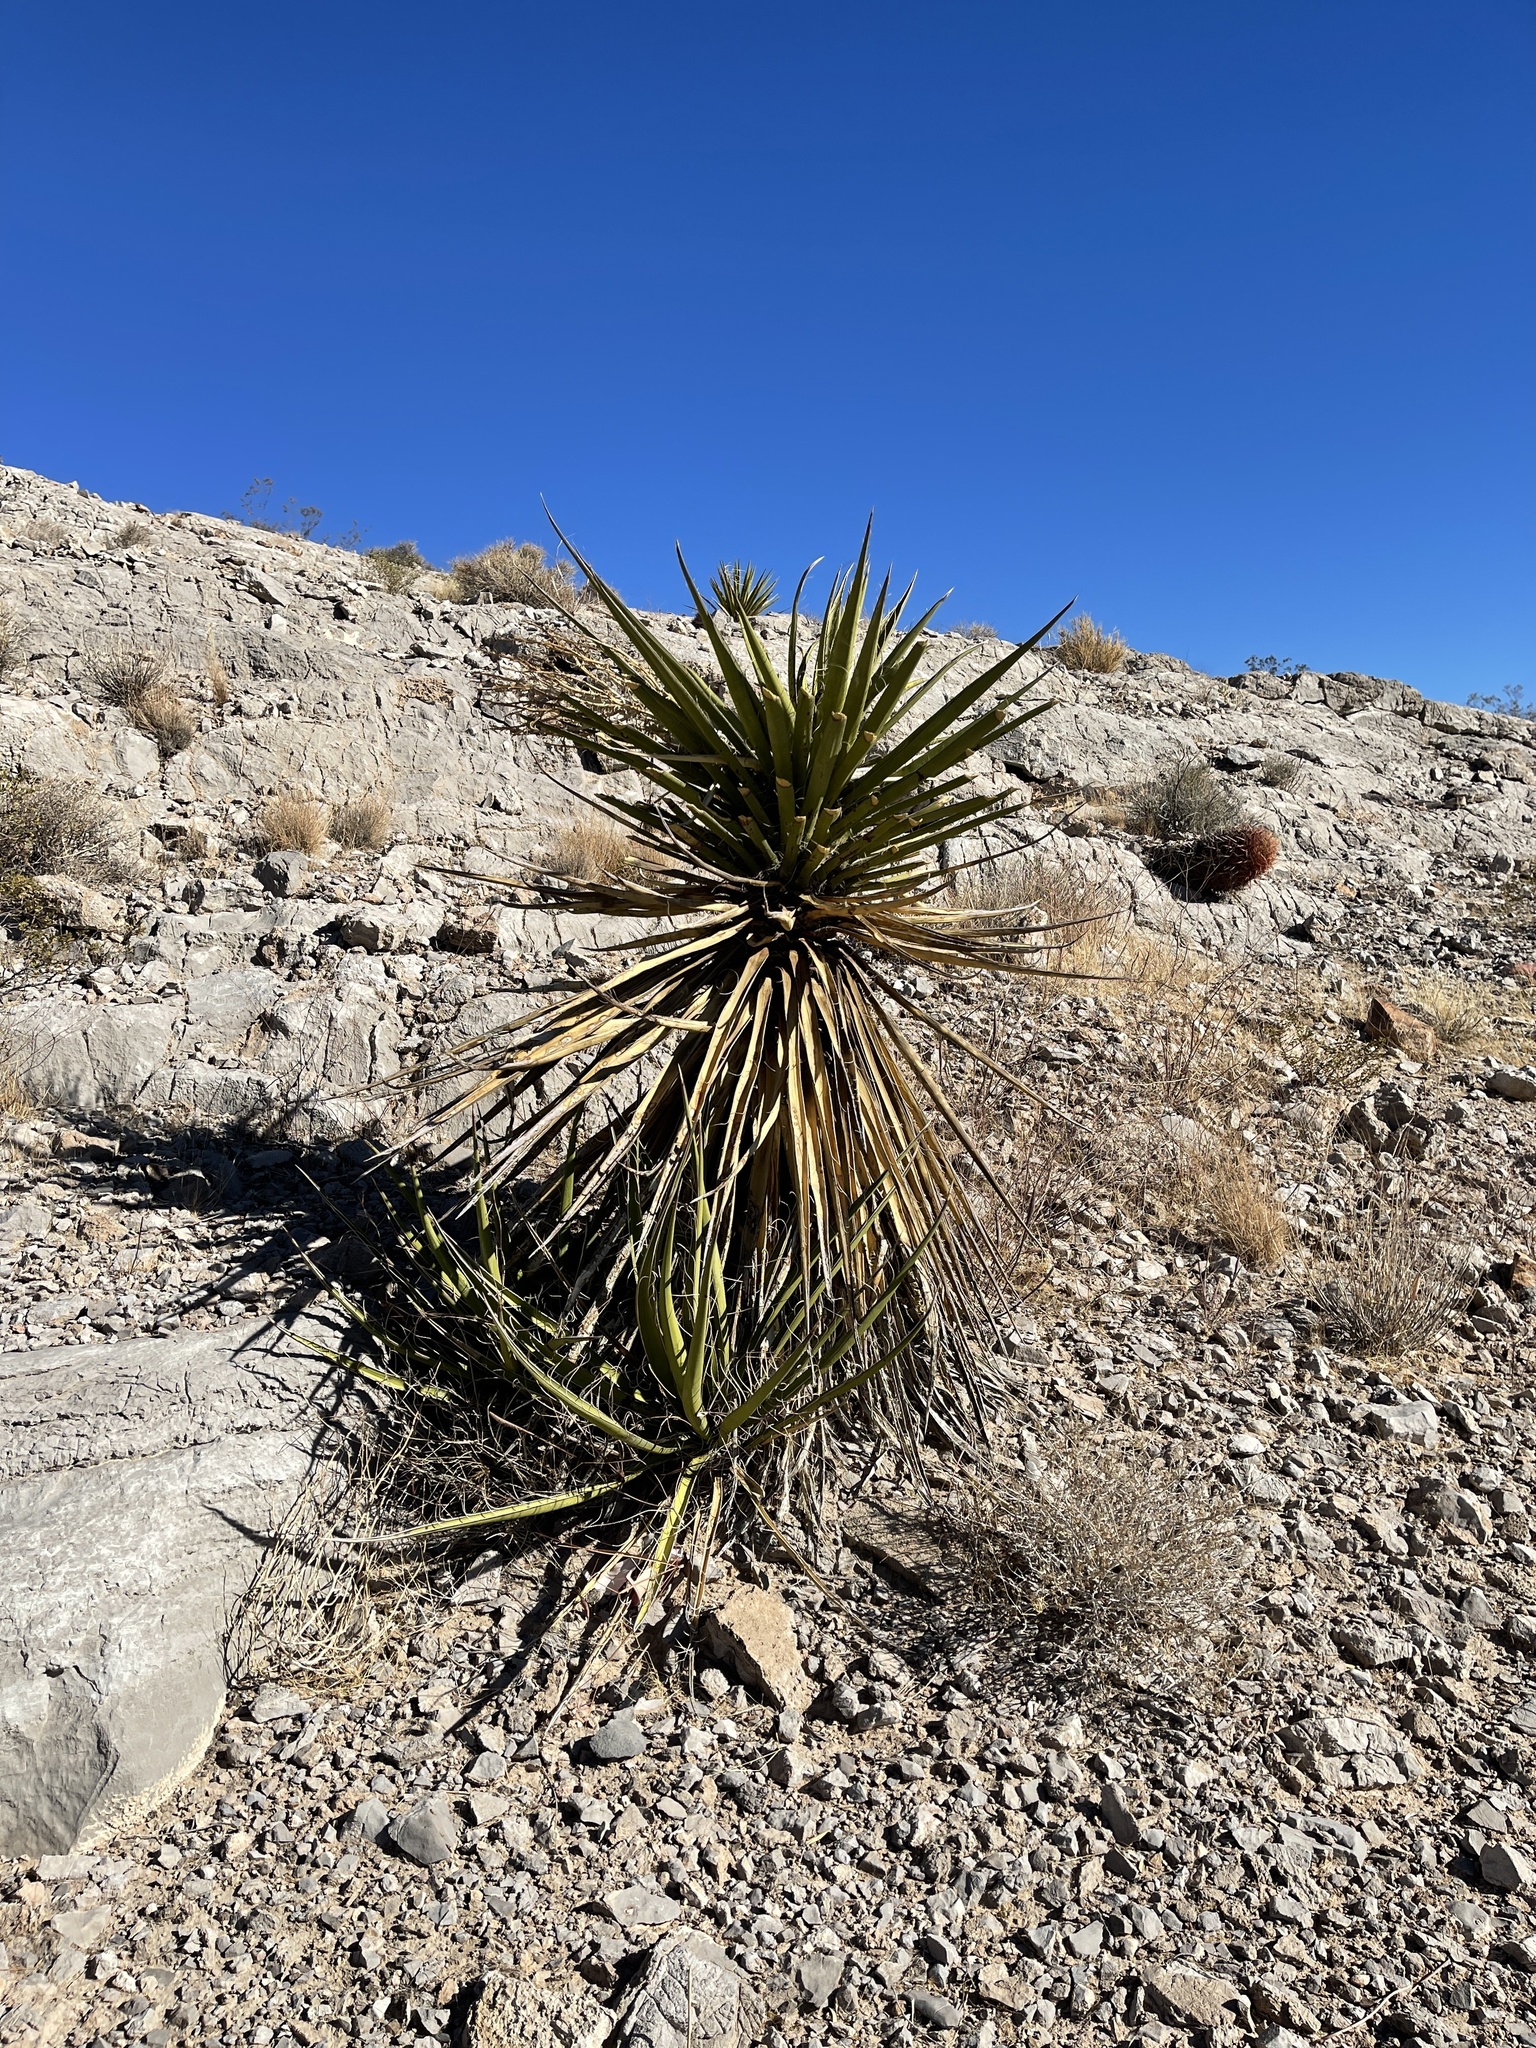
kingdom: Plantae
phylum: Tracheophyta
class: Liliopsida
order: Asparagales
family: Asparagaceae
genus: Yucca
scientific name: Yucca schidigera
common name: Mojave yucca
